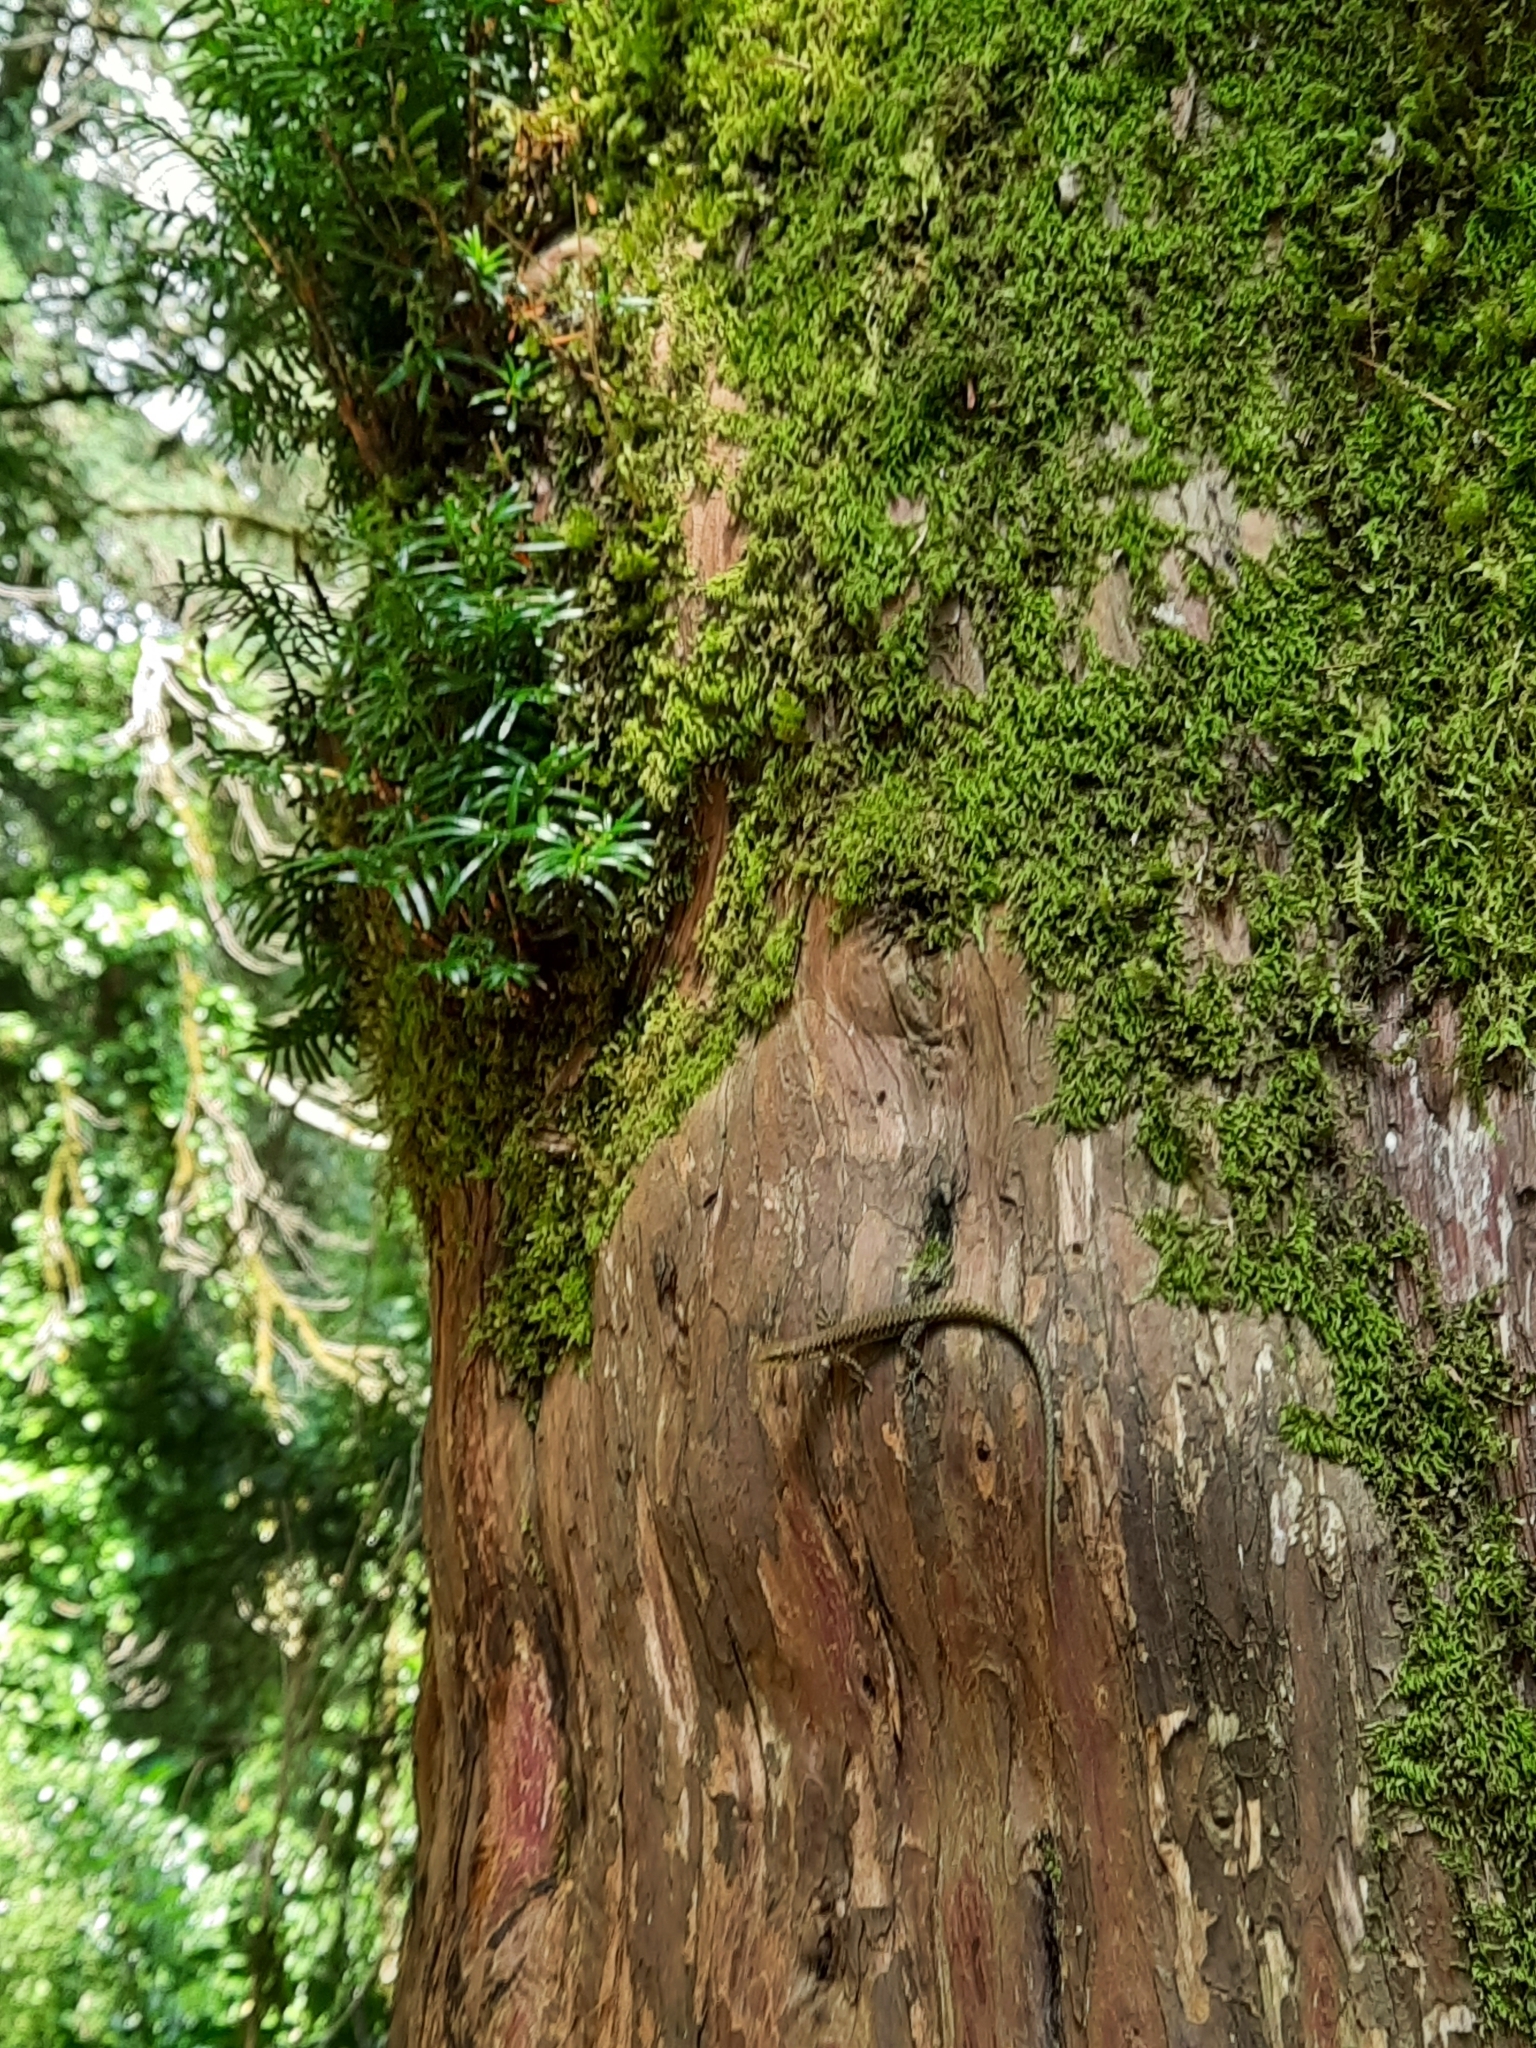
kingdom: Plantae
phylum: Tracheophyta
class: Pinopsida
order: Pinales
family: Taxaceae
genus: Taxus
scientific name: Taxus baccata
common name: Yew
